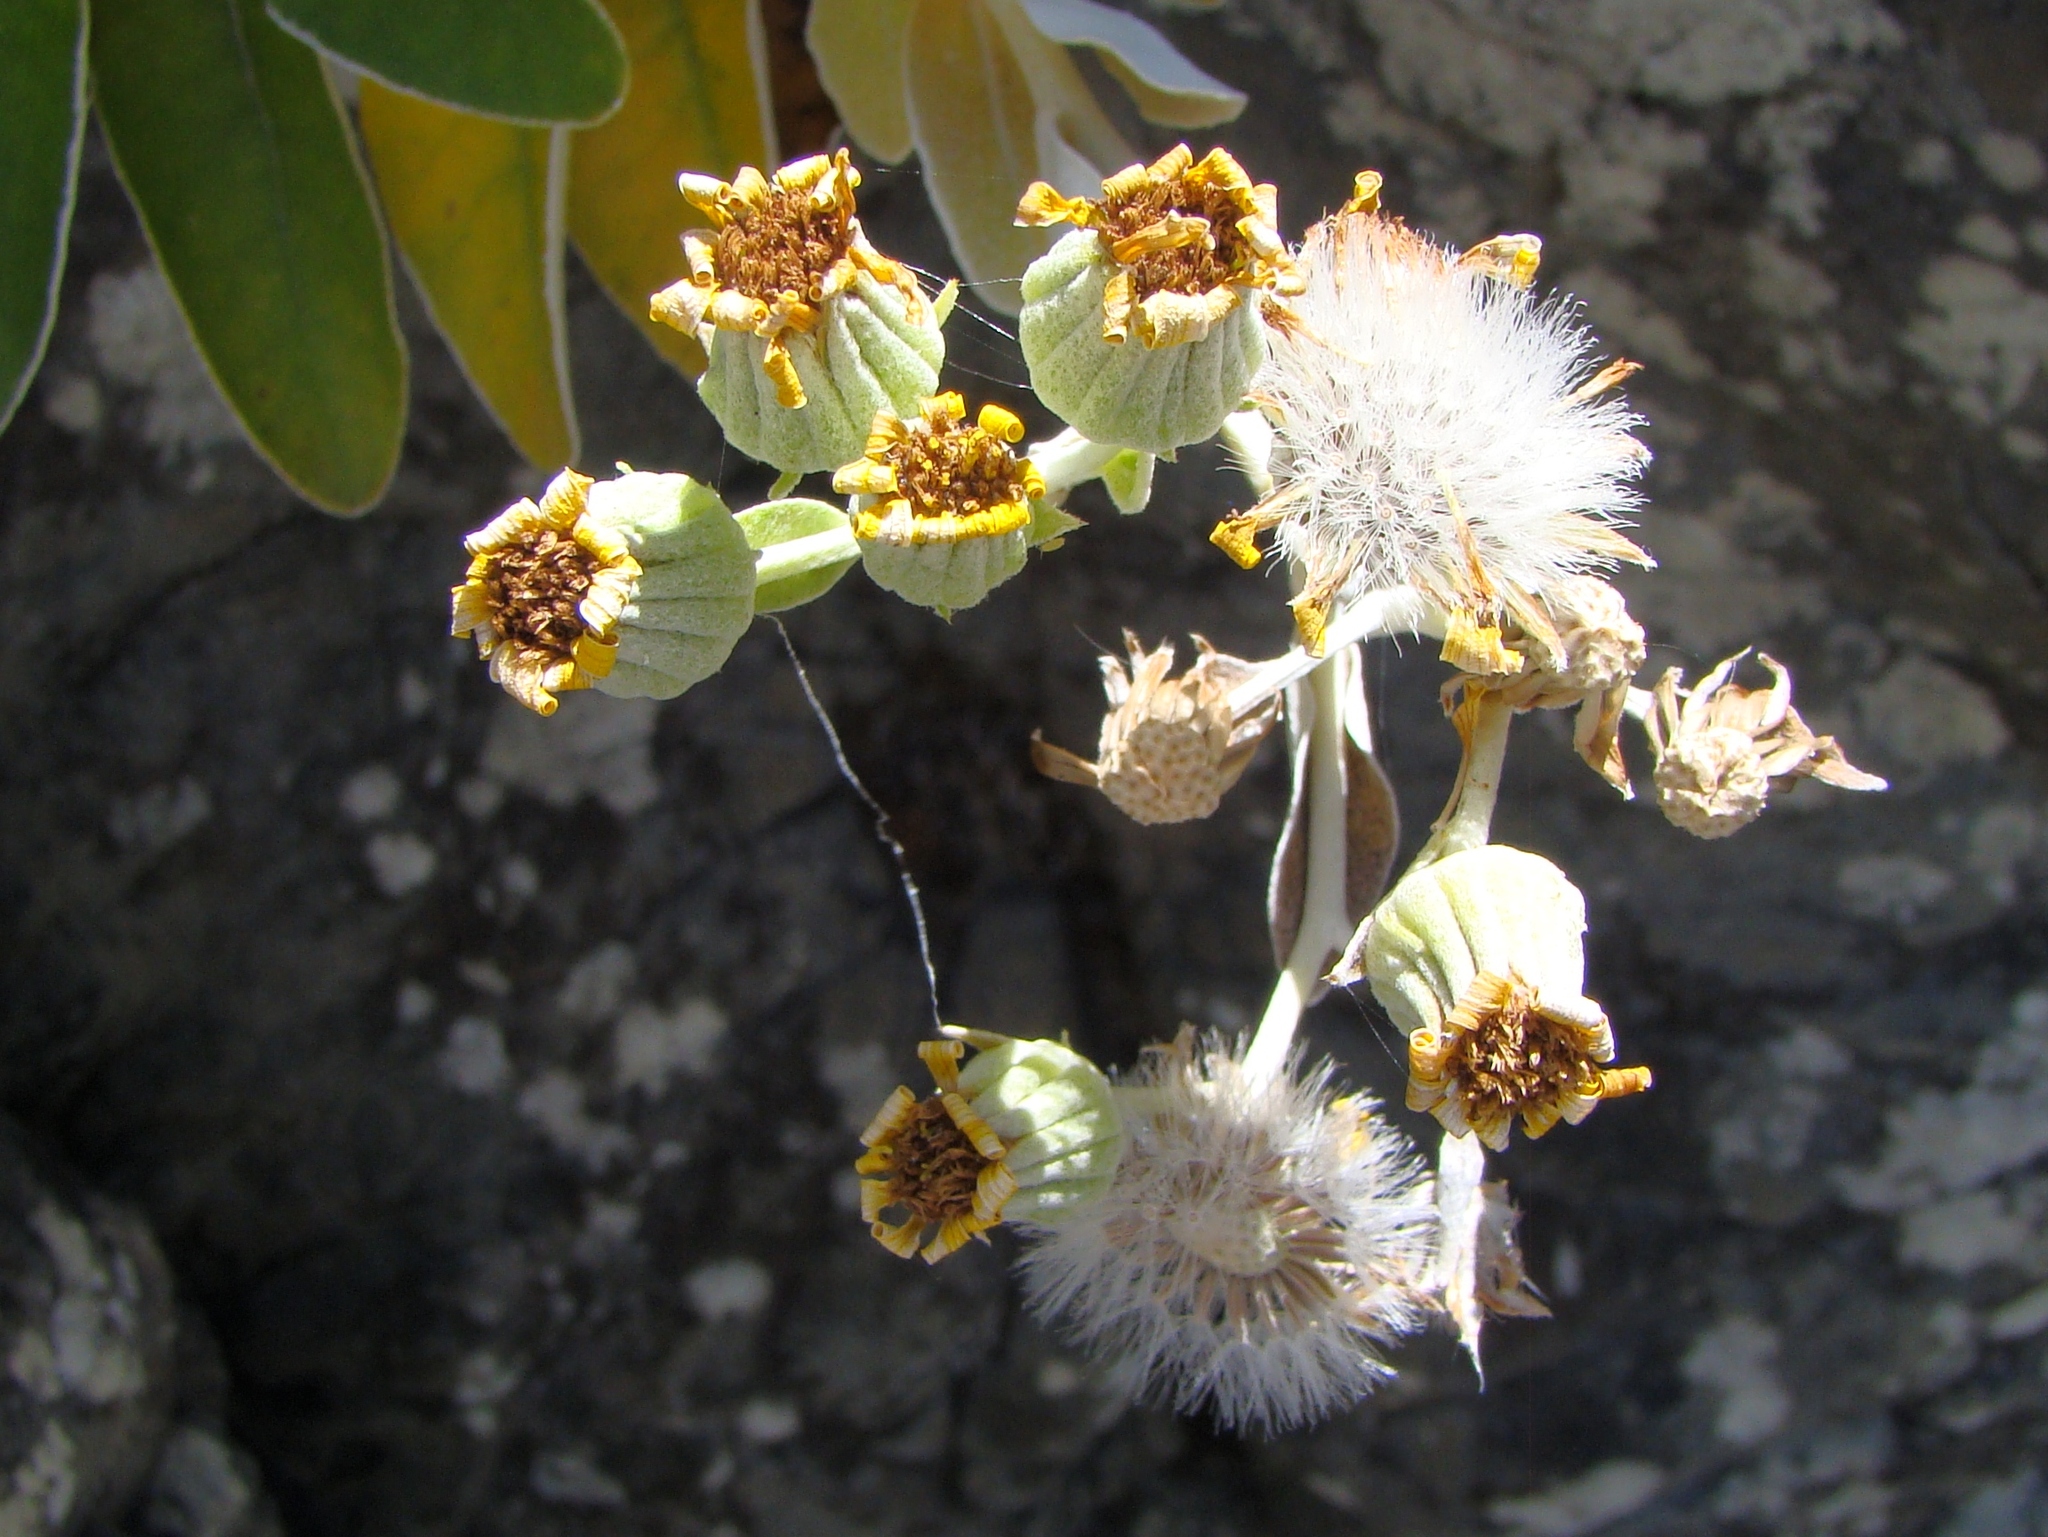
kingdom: Plantae
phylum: Tracheophyta
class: Magnoliopsida
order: Asterales
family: Asteraceae
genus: Brachyglottis
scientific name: Brachyglottis greyi
